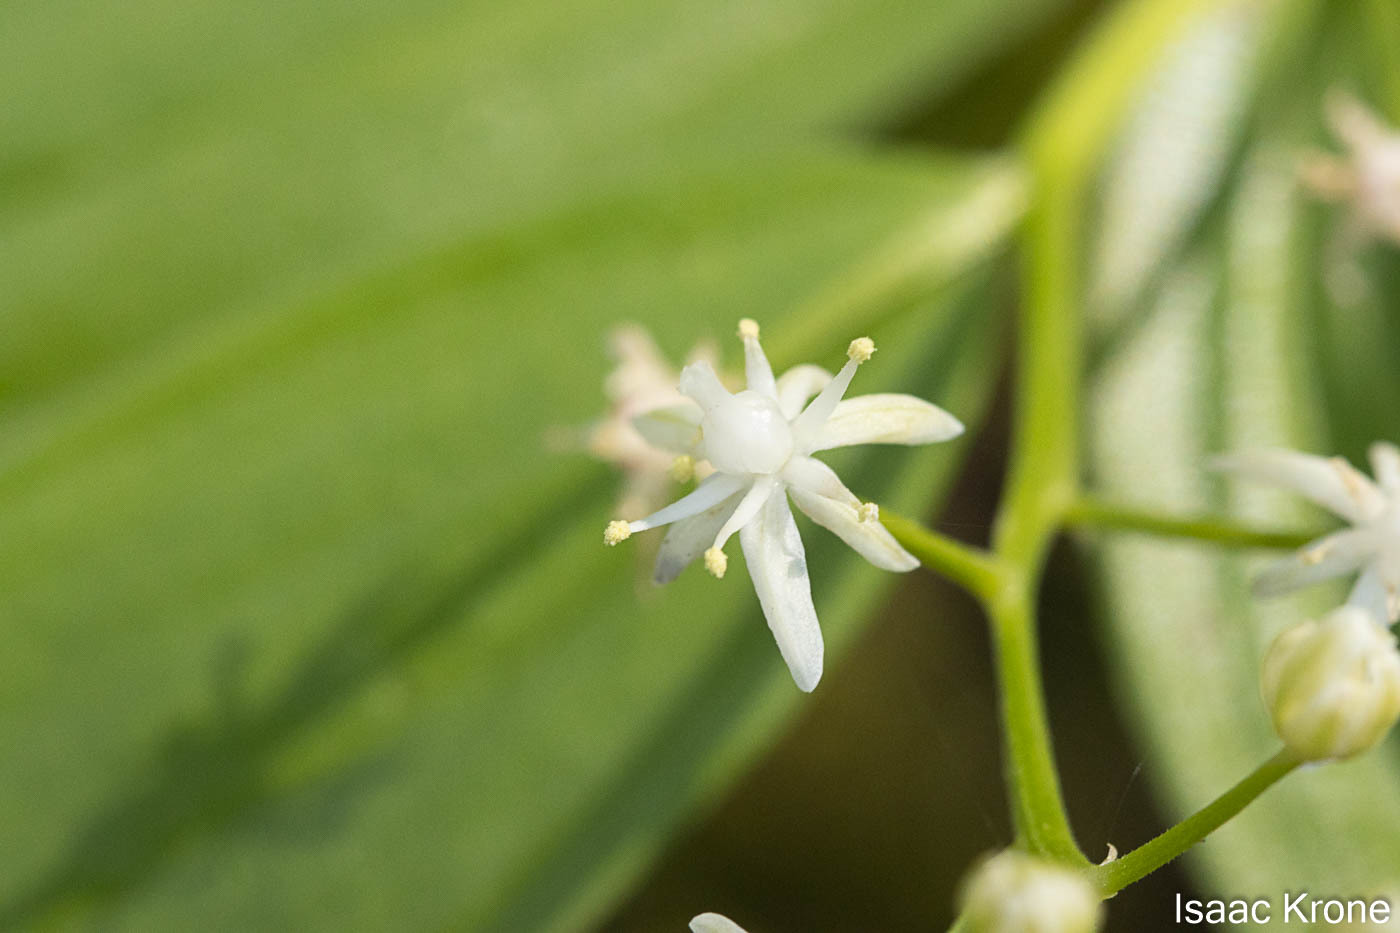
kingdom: Plantae
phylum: Tracheophyta
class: Liliopsida
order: Asparagales
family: Asparagaceae
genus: Maianthemum
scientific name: Maianthemum stellatum
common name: Little false solomon's seal
